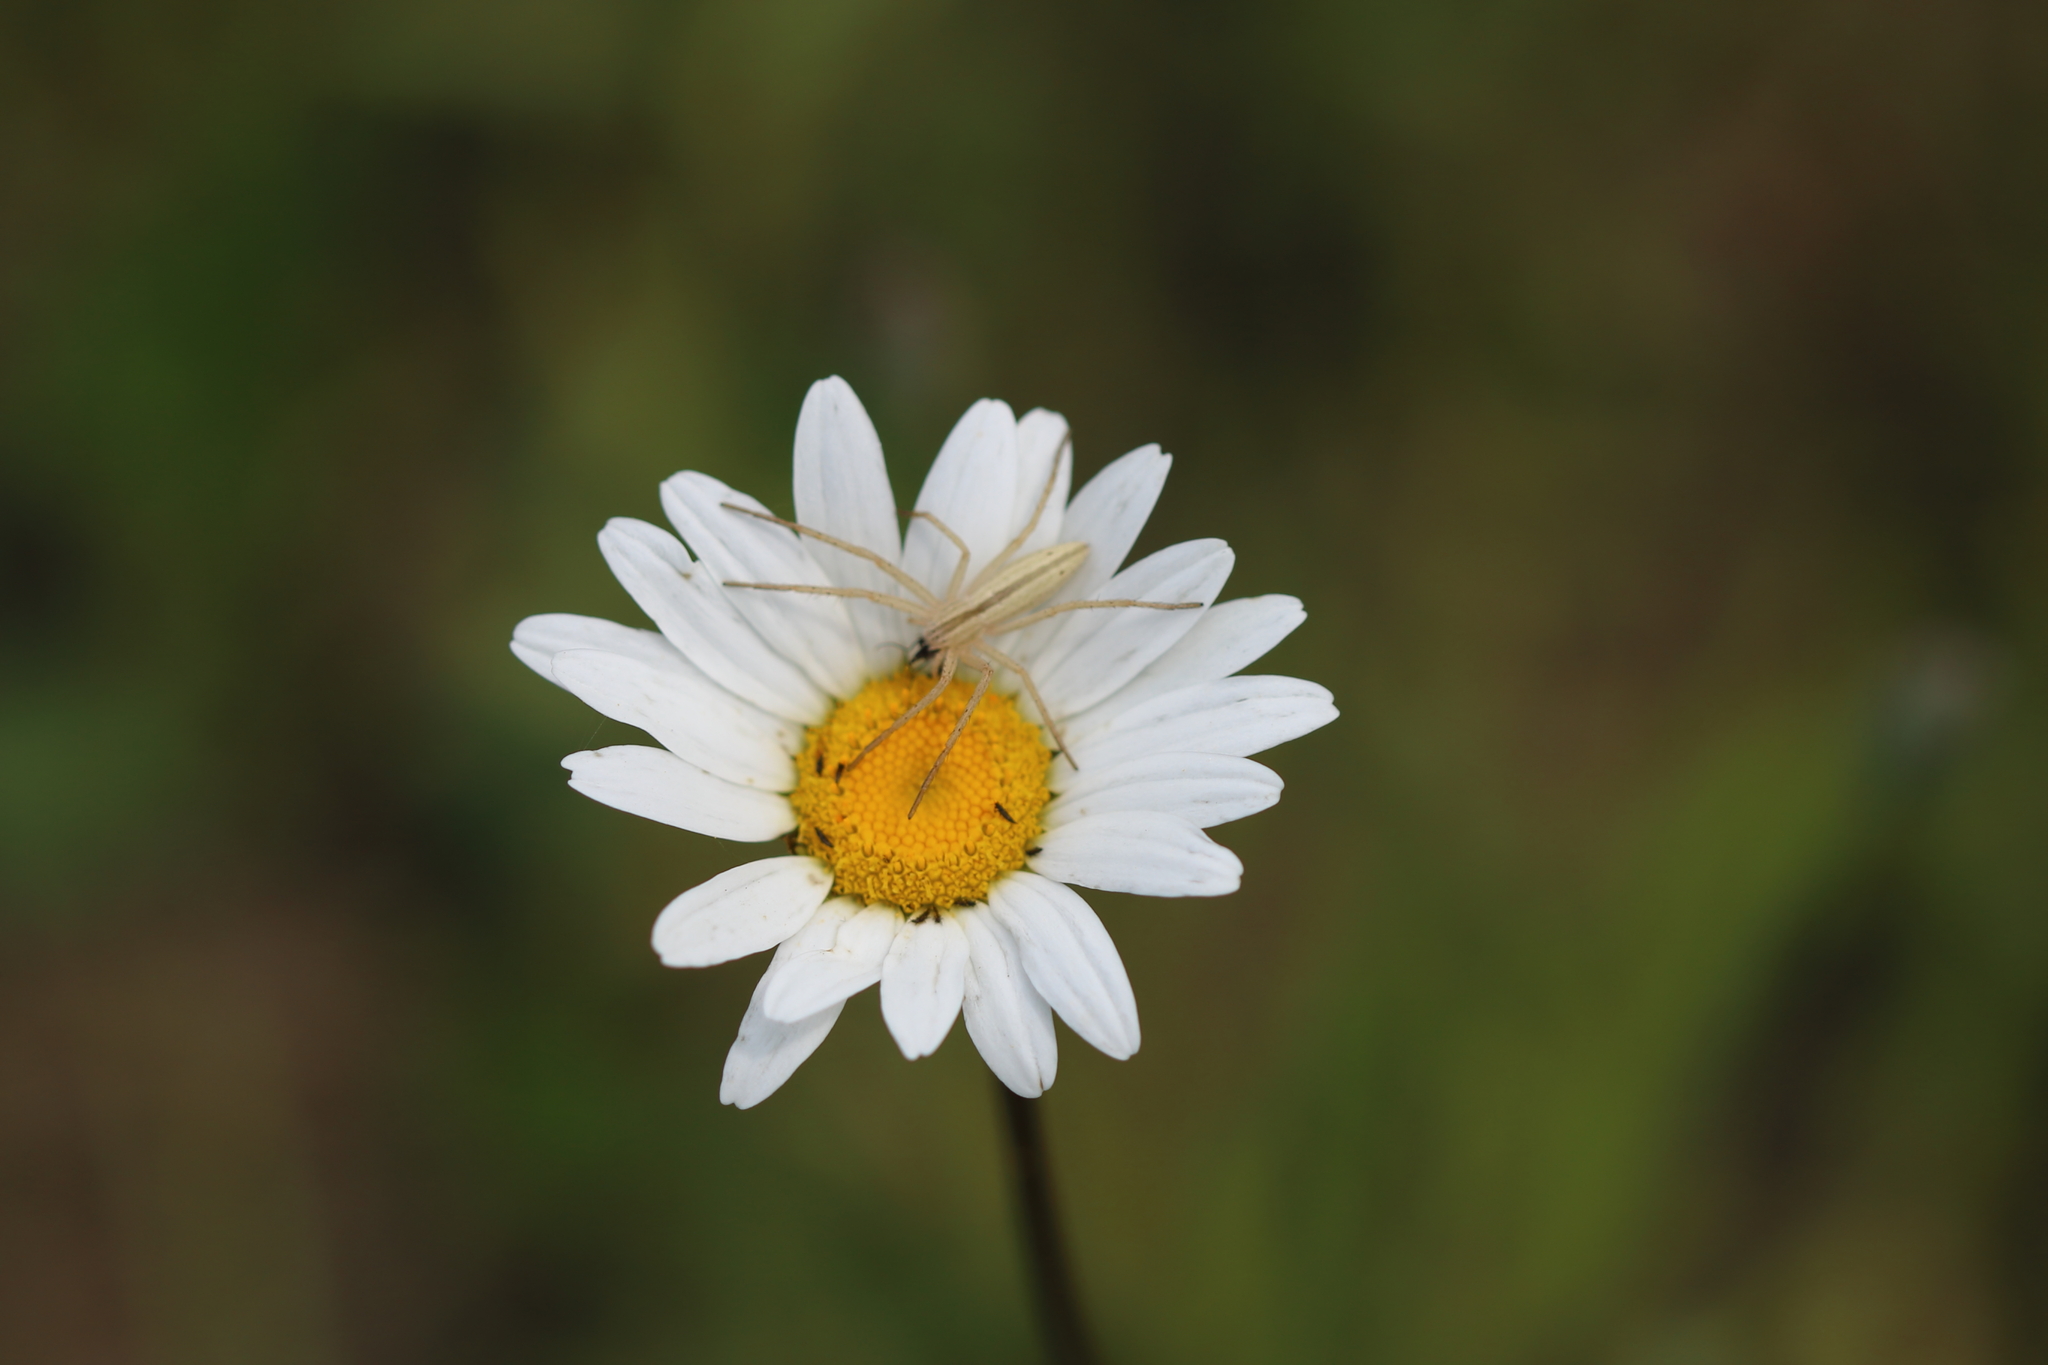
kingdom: Plantae
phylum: Tracheophyta
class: Magnoliopsida
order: Asterales
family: Asteraceae
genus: Leucanthemum
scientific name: Leucanthemum vulgare
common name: Oxeye daisy
